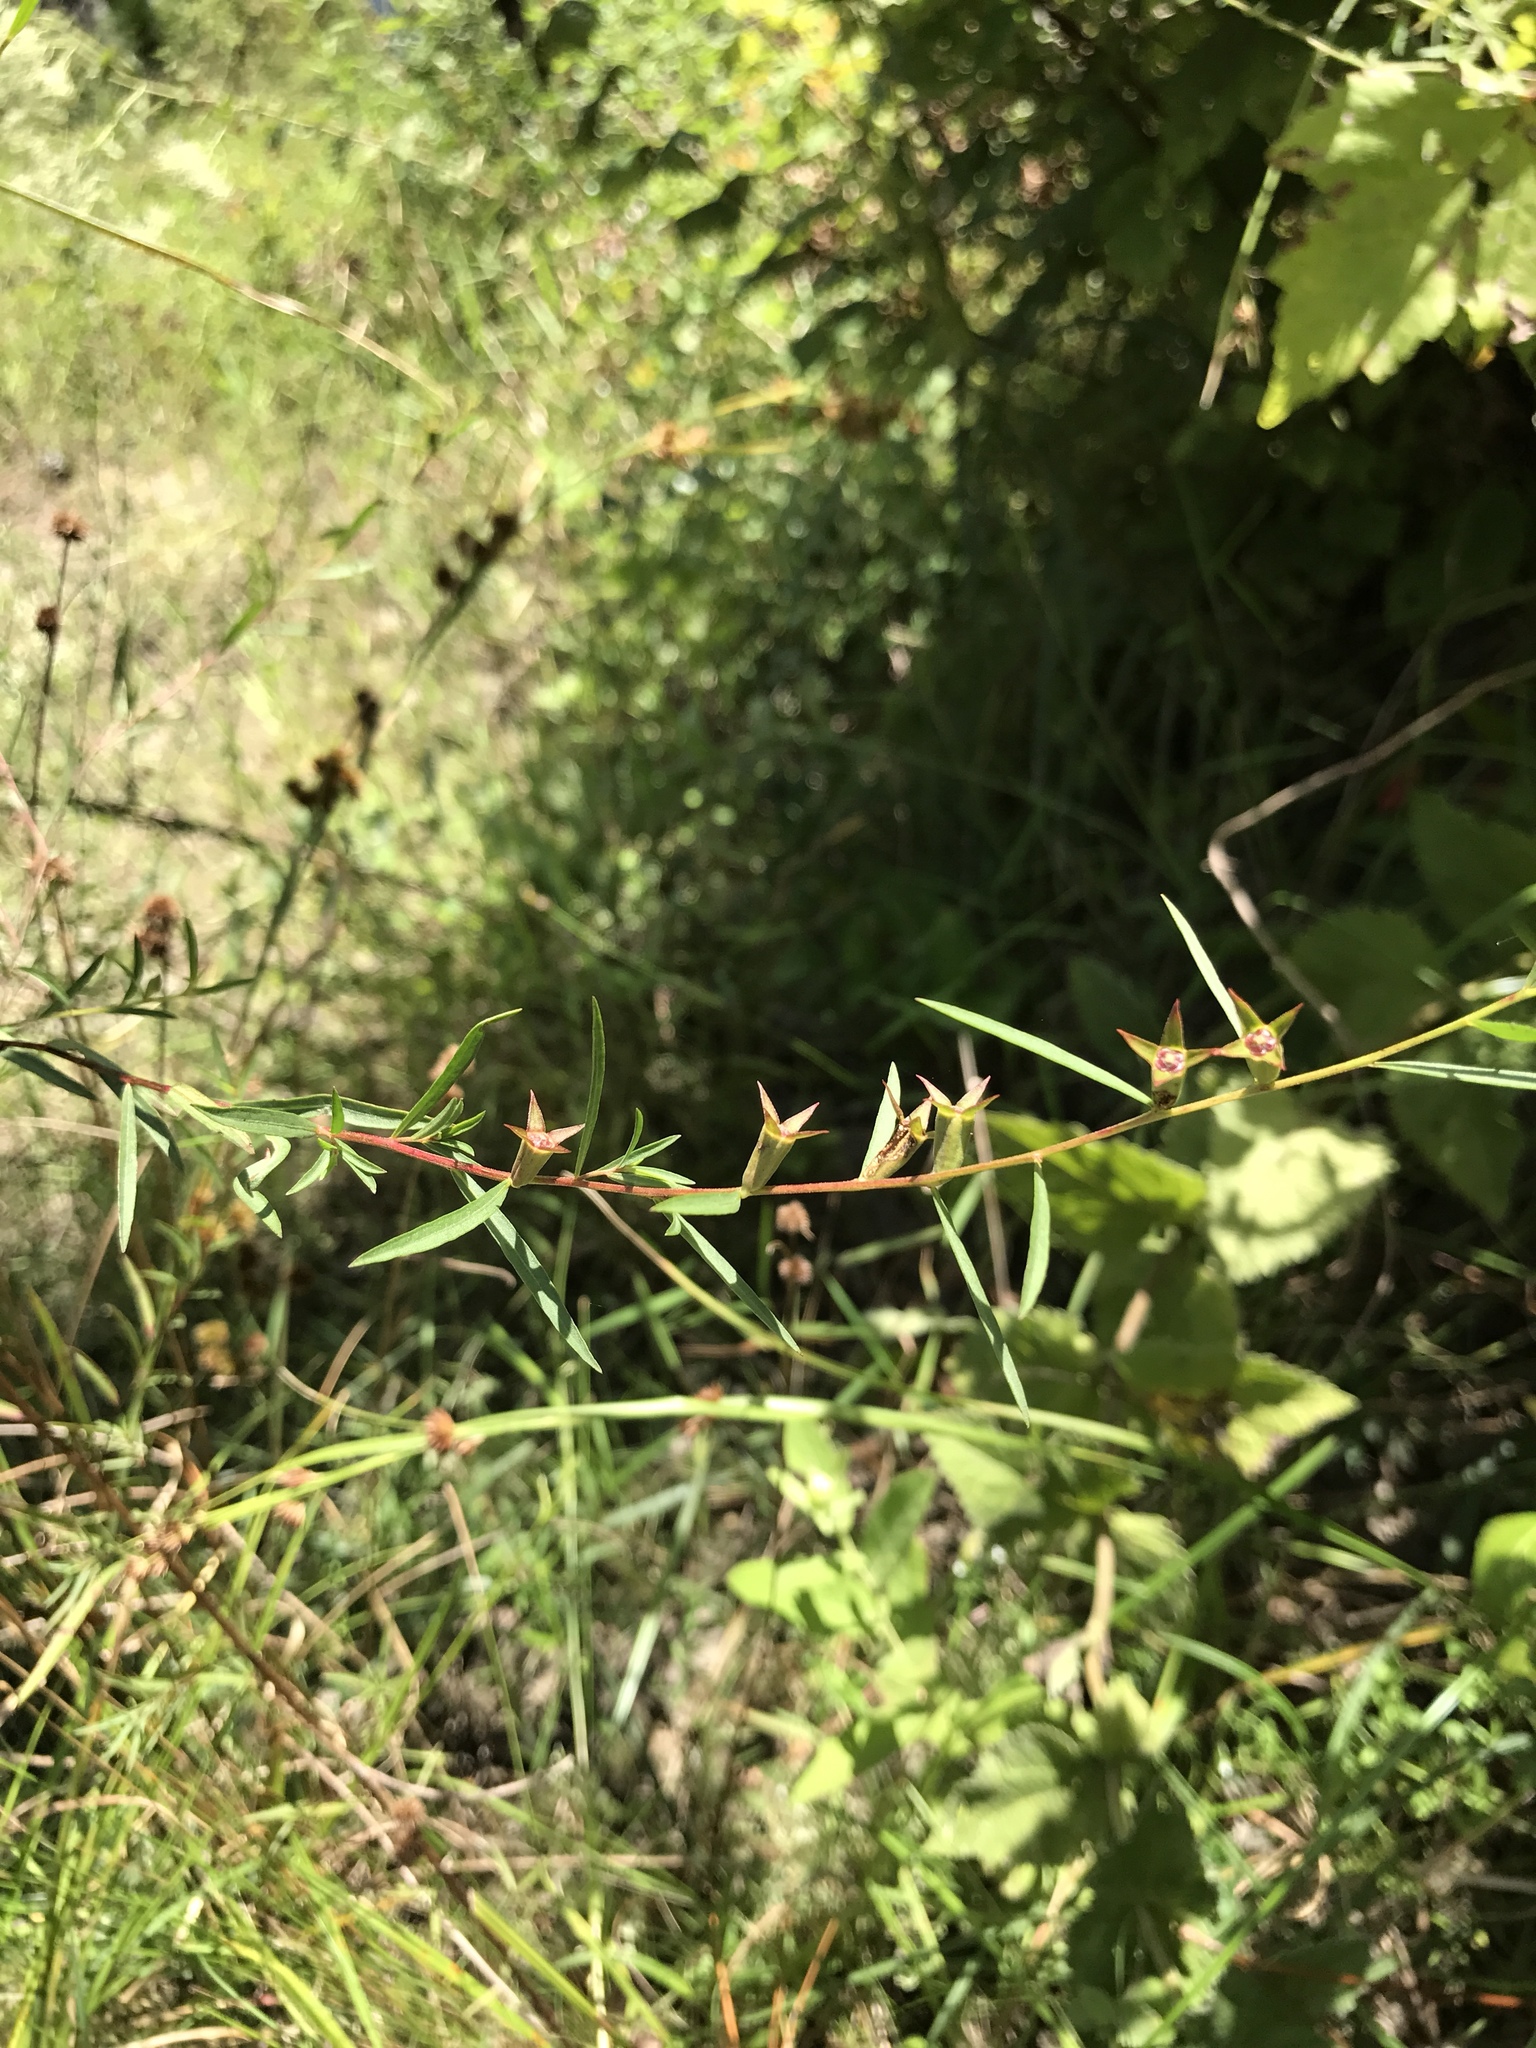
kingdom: Plantae
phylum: Tracheophyta
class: Magnoliopsida
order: Myrtales
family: Onagraceae
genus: Ludwigia
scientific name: Ludwigia linearis
